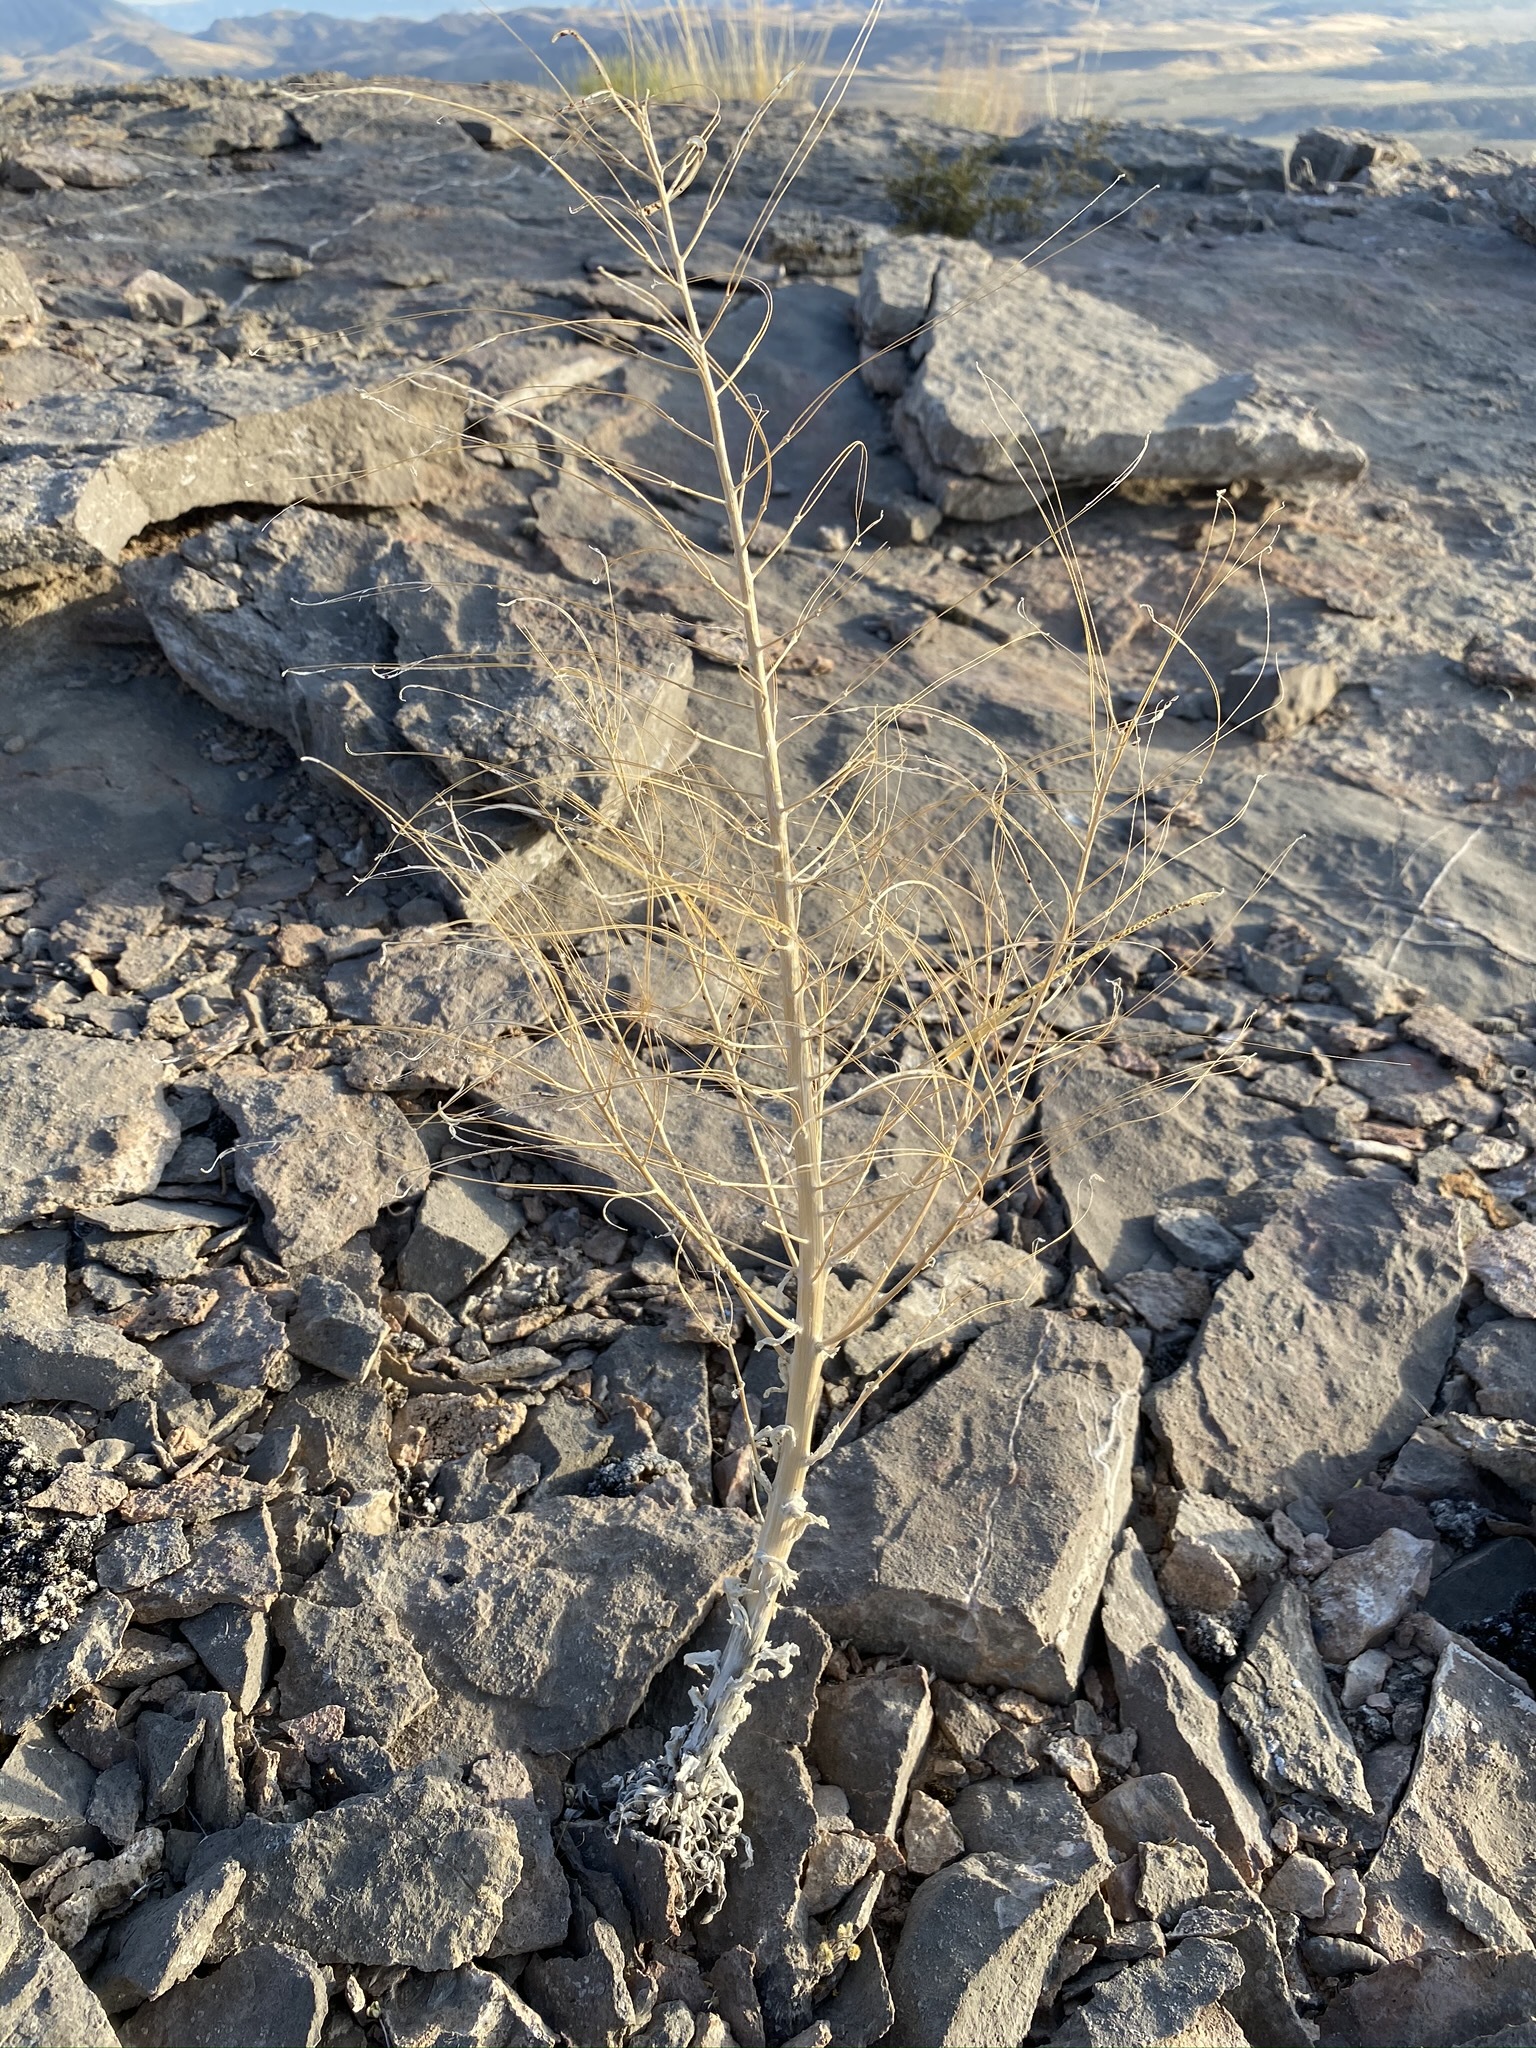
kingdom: Plantae
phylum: Tracheophyta
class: Magnoliopsida
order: Brassicales
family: Brassicaceae
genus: Boechera
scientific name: Boechera shockleyi
